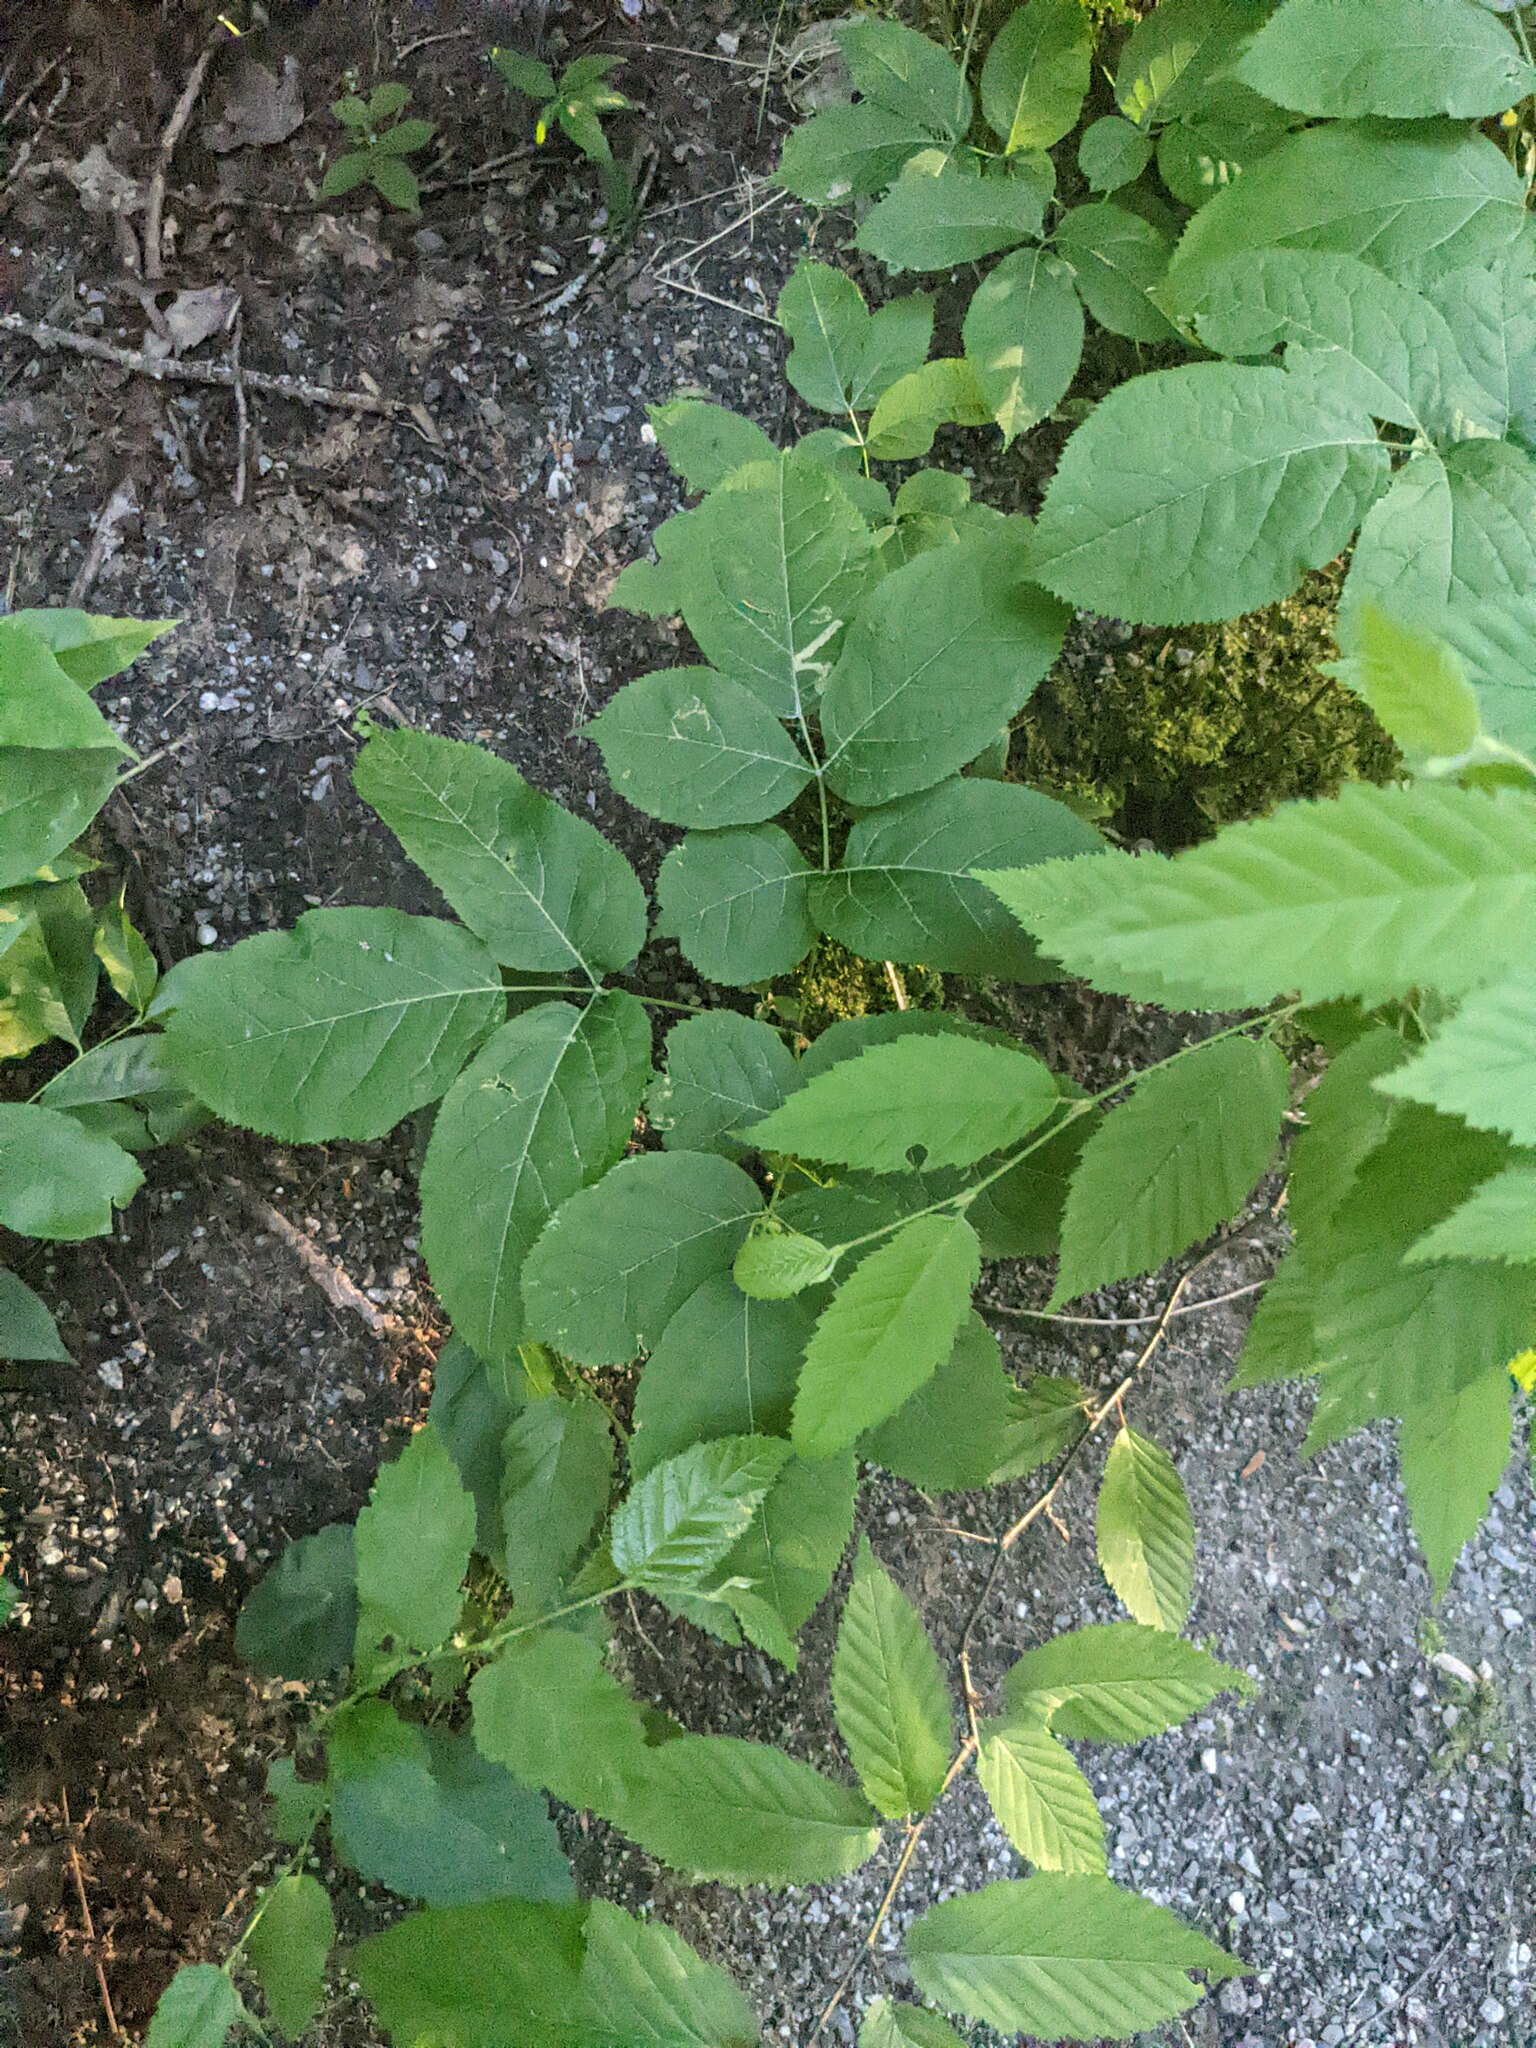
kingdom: Plantae
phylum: Tracheophyta
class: Magnoliopsida
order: Apiales
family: Araliaceae
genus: Aralia
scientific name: Aralia nudicaulis
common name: Wild sarsaparilla
